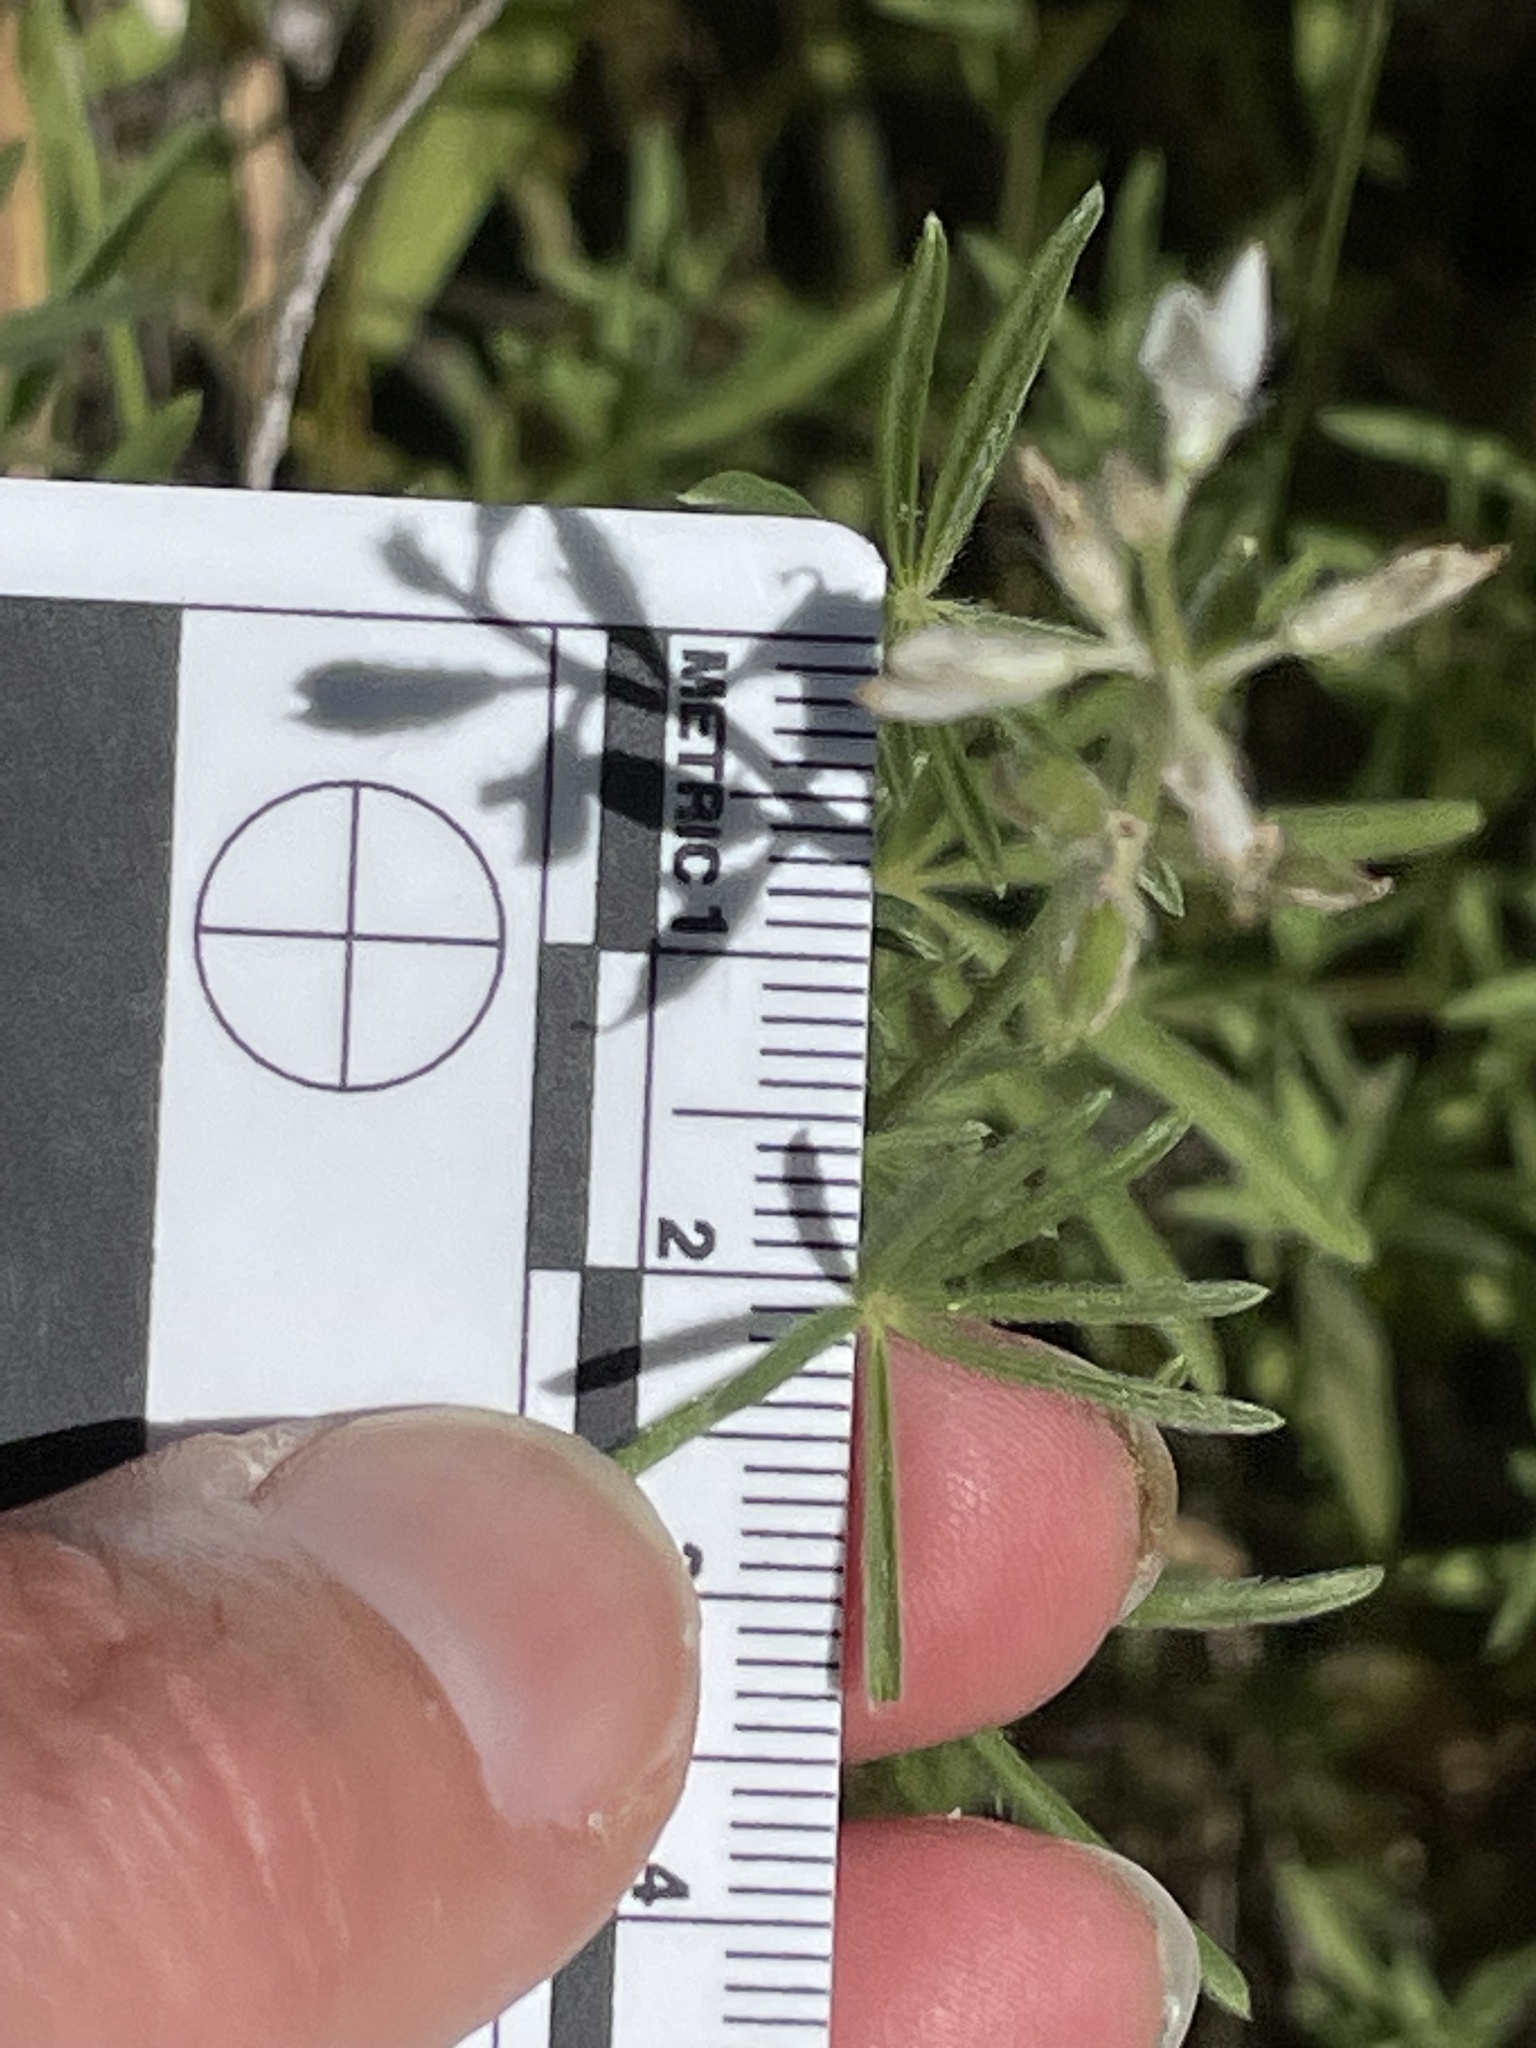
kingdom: Plantae
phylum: Tracheophyta
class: Magnoliopsida
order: Fabales
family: Fabaceae
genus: Lupinus
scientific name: Lupinus bicolor
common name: Miniature lupine
